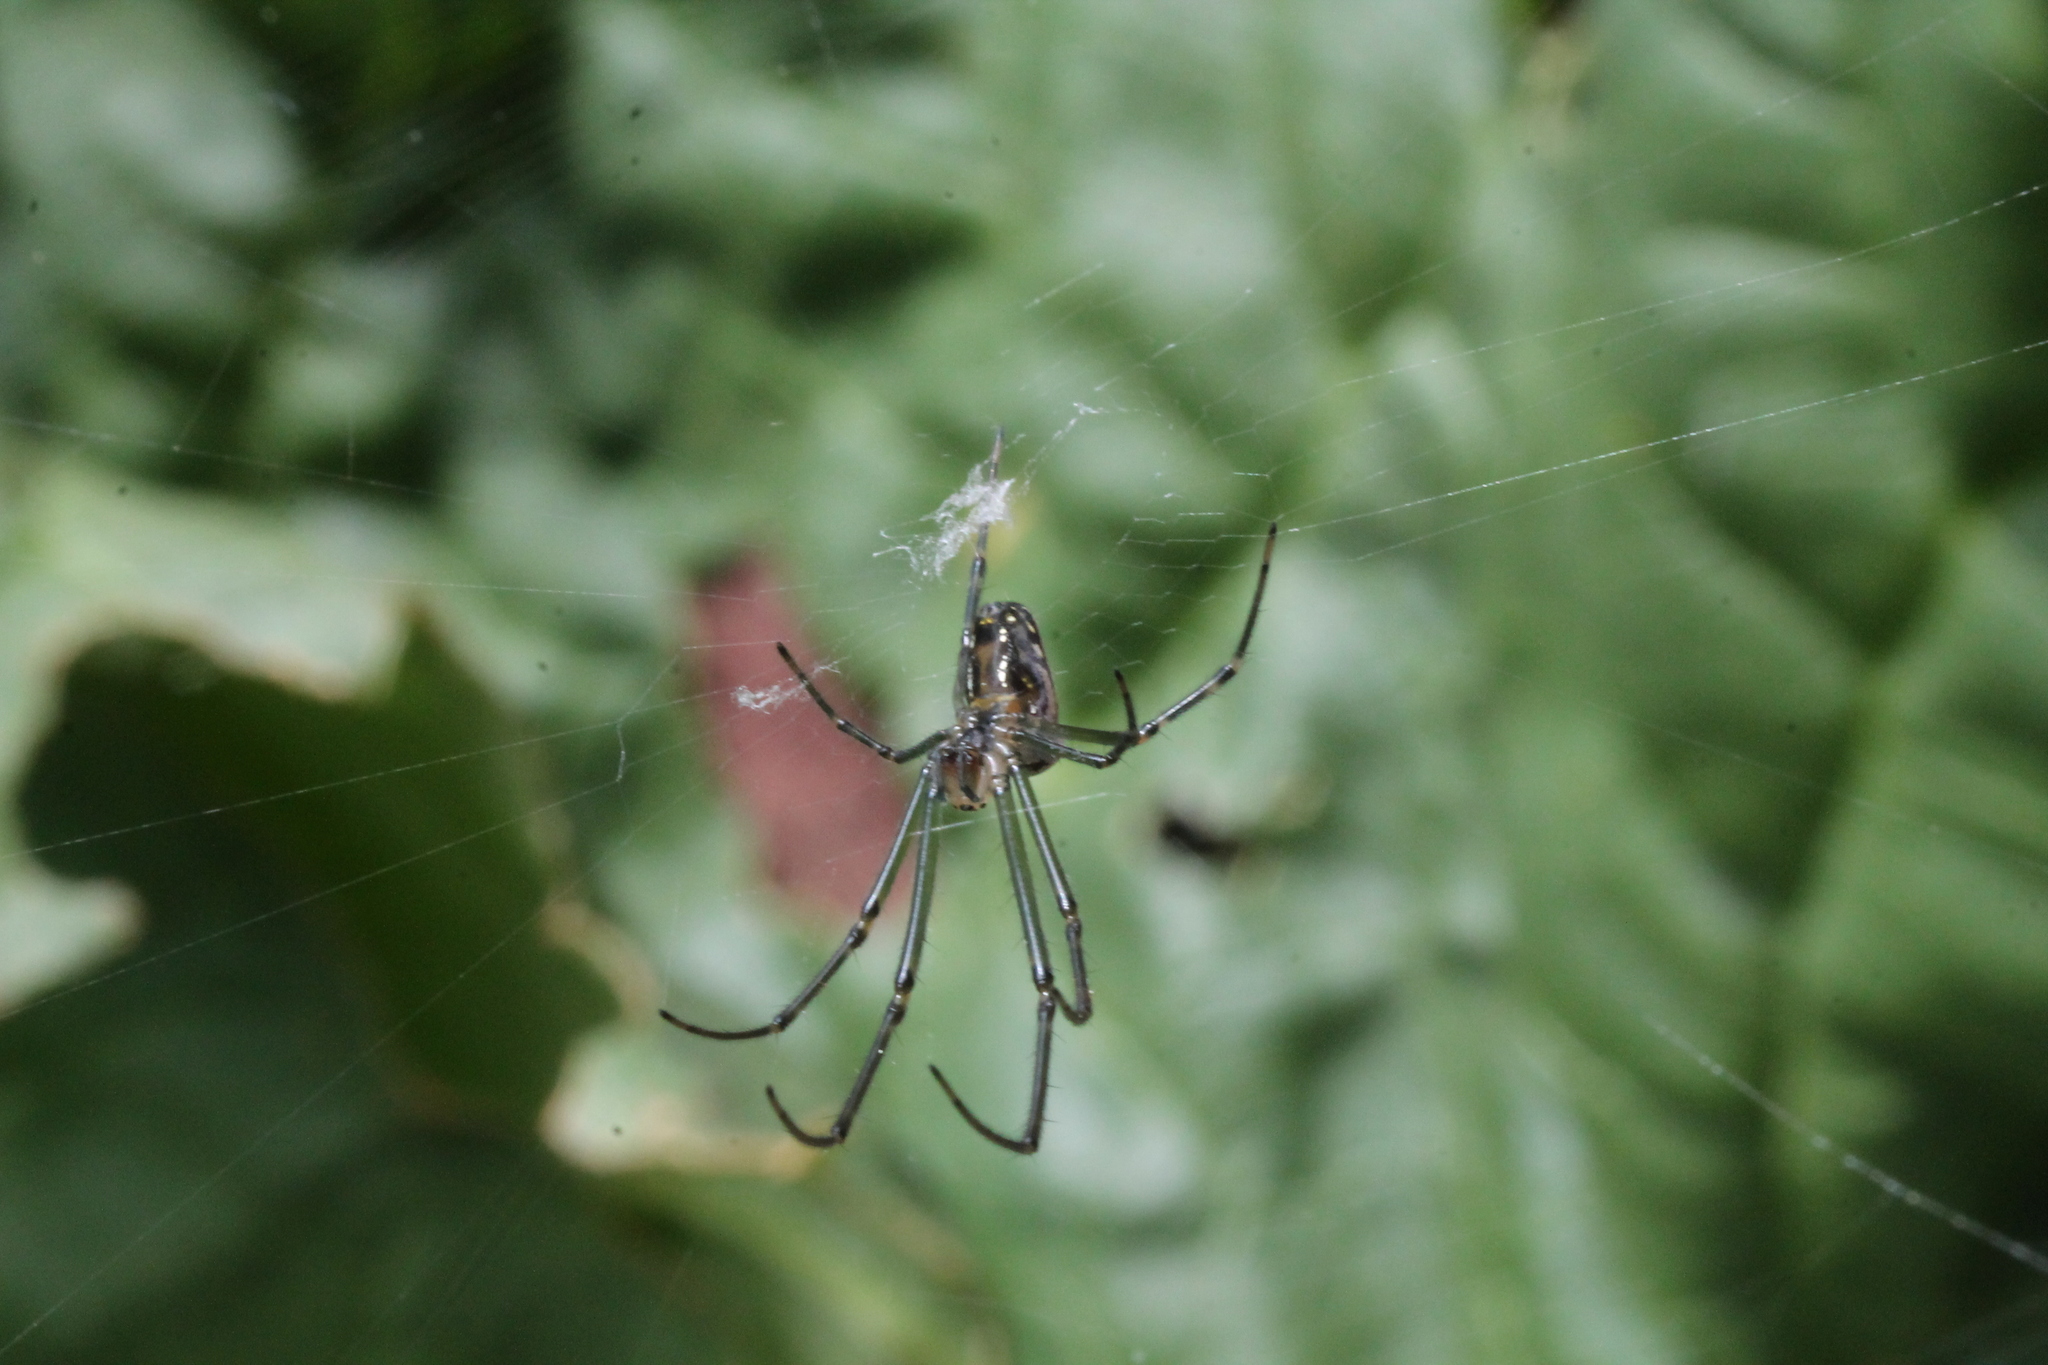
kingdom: Animalia
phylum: Arthropoda
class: Arachnida
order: Araneae
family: Tetragnathidae
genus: Leucauge
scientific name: Leucauge dromedaria
